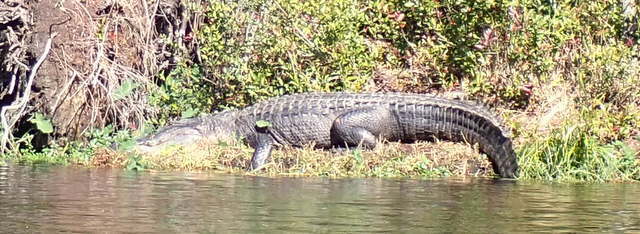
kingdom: Animalia
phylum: Chordata
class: Crocodylia
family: Alligatoridae
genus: Alligator
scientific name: Alligator mississippiensis
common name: American alligator
